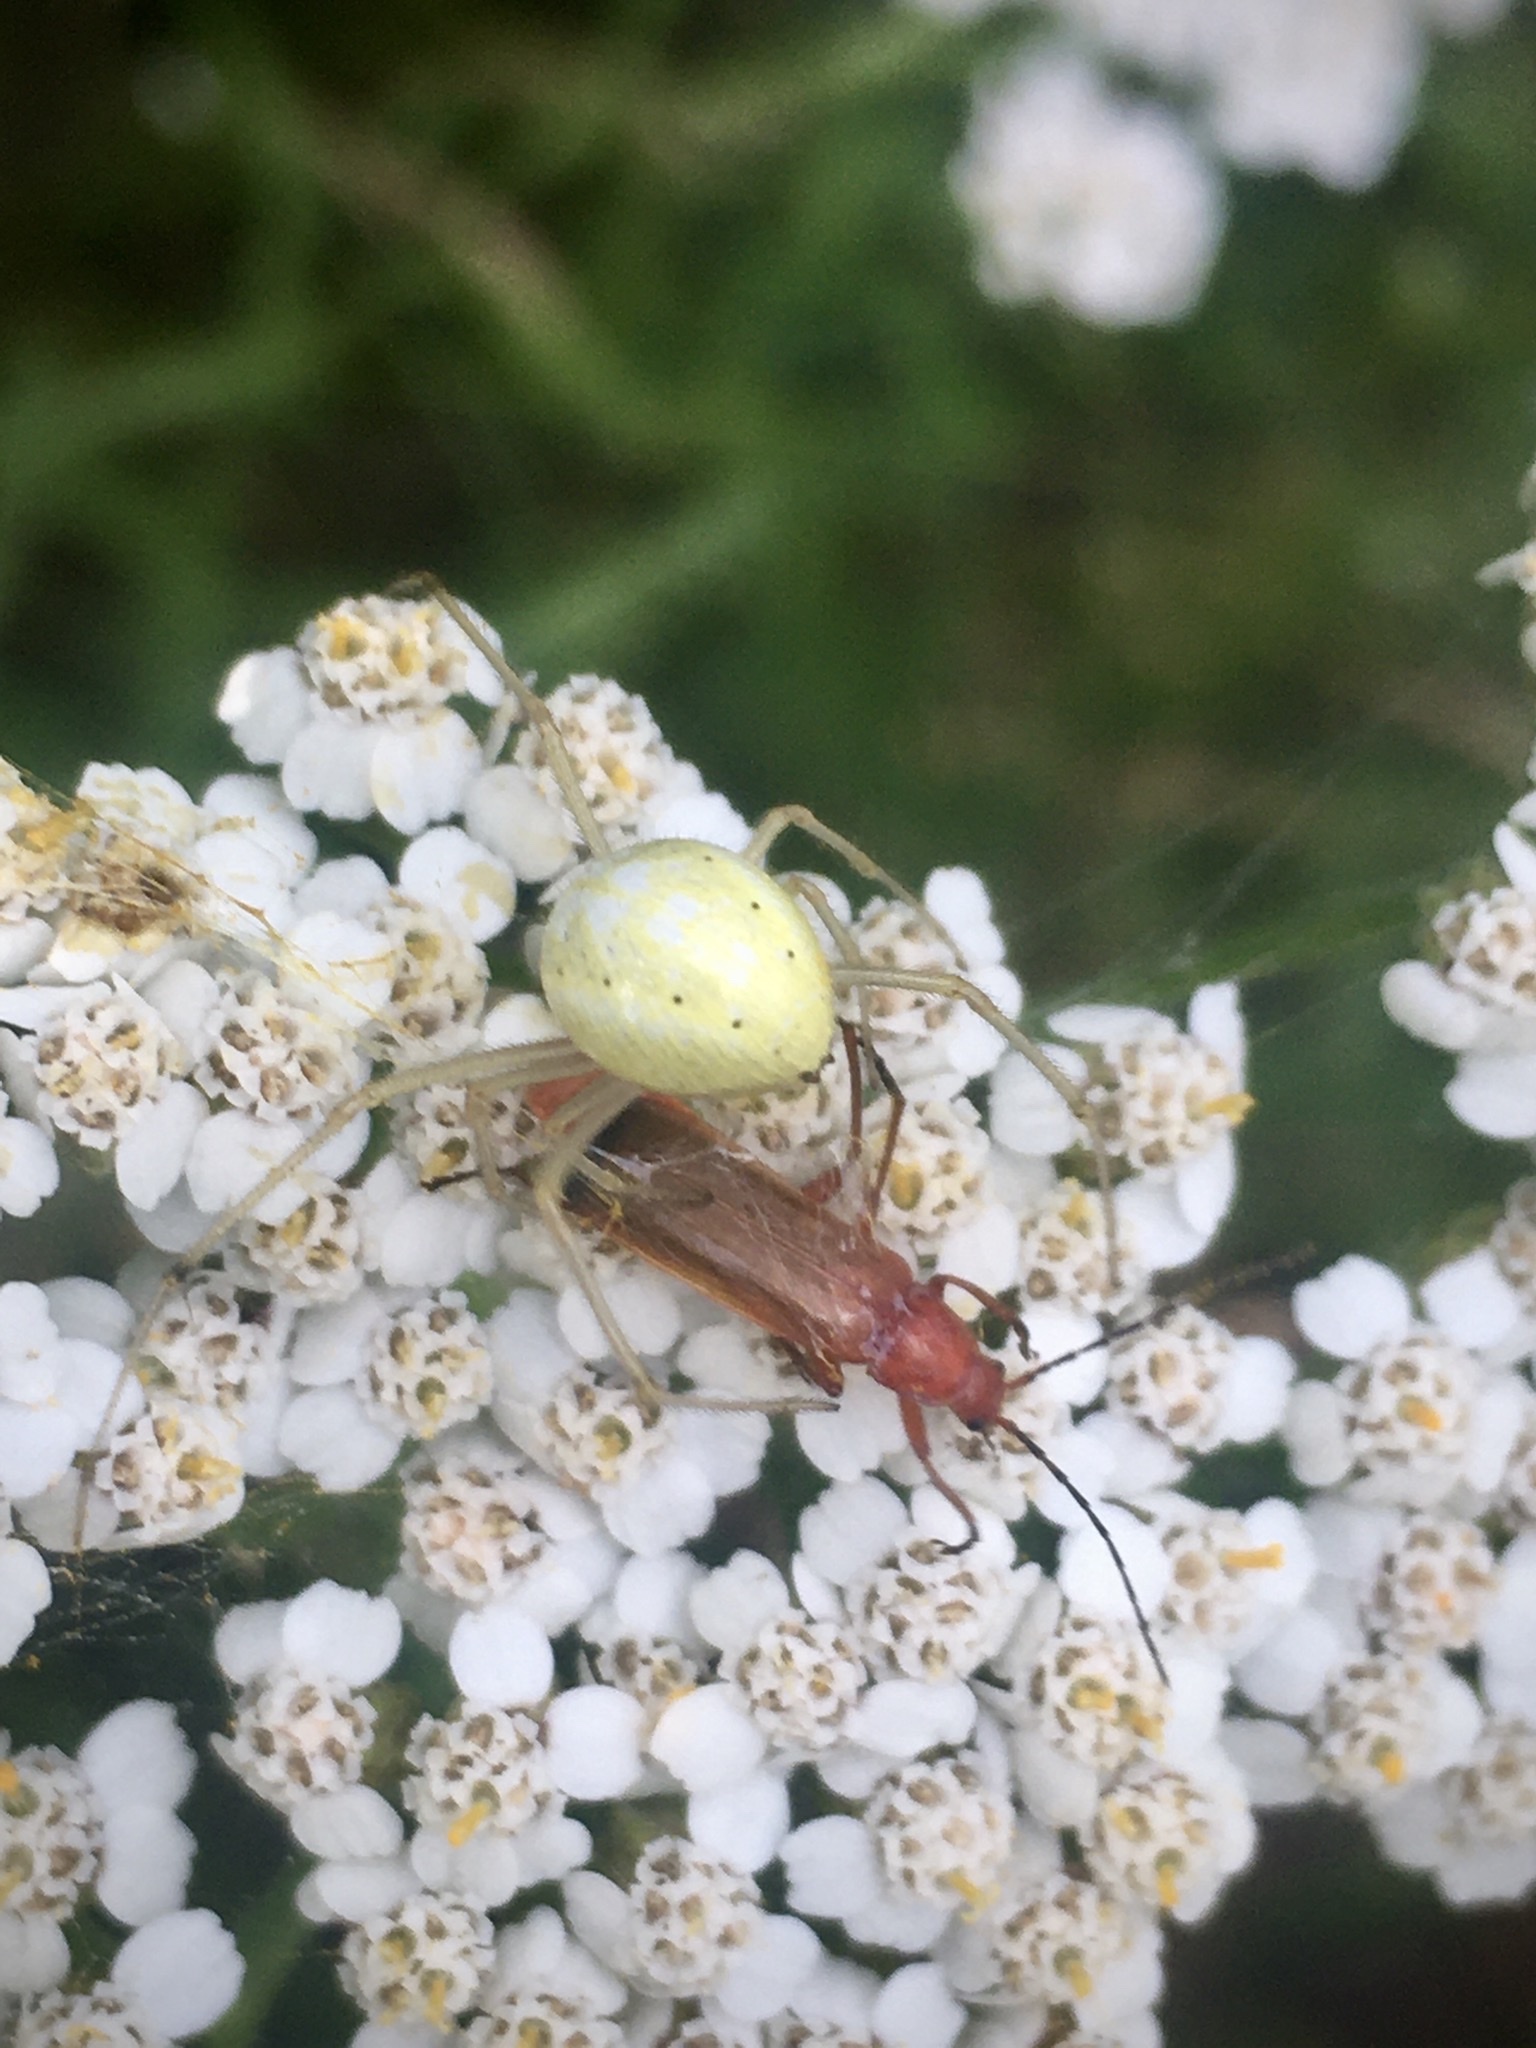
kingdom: Animalia
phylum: Arthropoda
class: Arachnida
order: Araneae
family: Theridiidae
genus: Enoplognatha
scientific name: Enoplognatha
